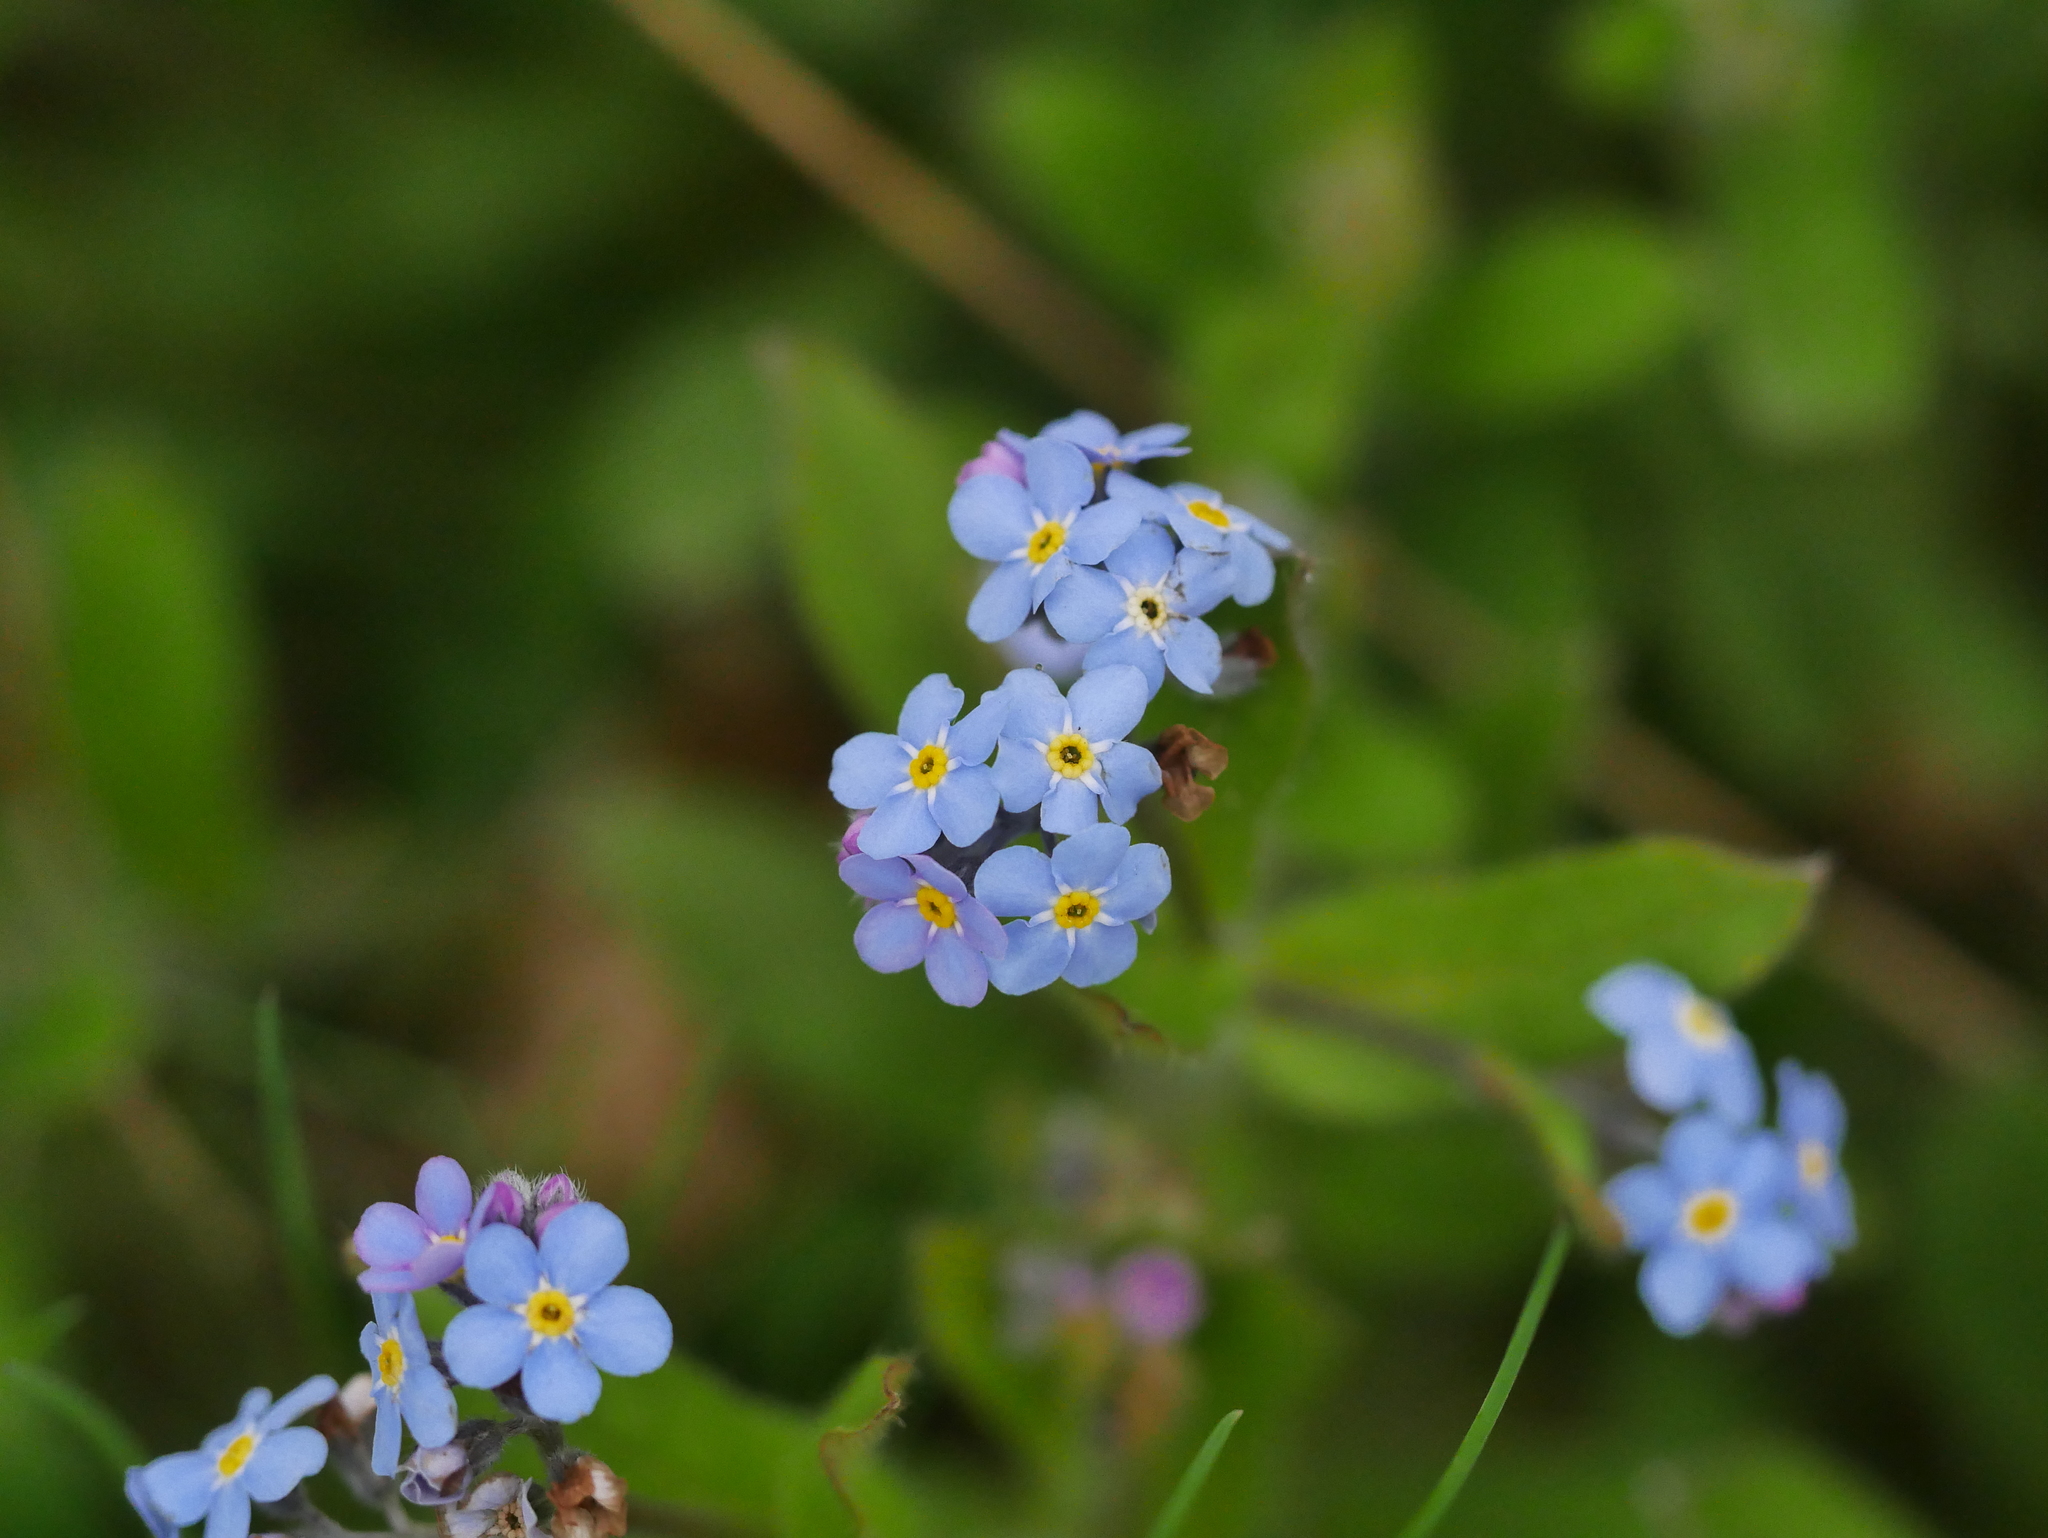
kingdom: Plantae
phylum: Tracheophyta
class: Magnoliopsida
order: Boraginales
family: Boraginaceae
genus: Myosotis
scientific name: Myosotis sylvatica
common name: Wood forget-me-not
